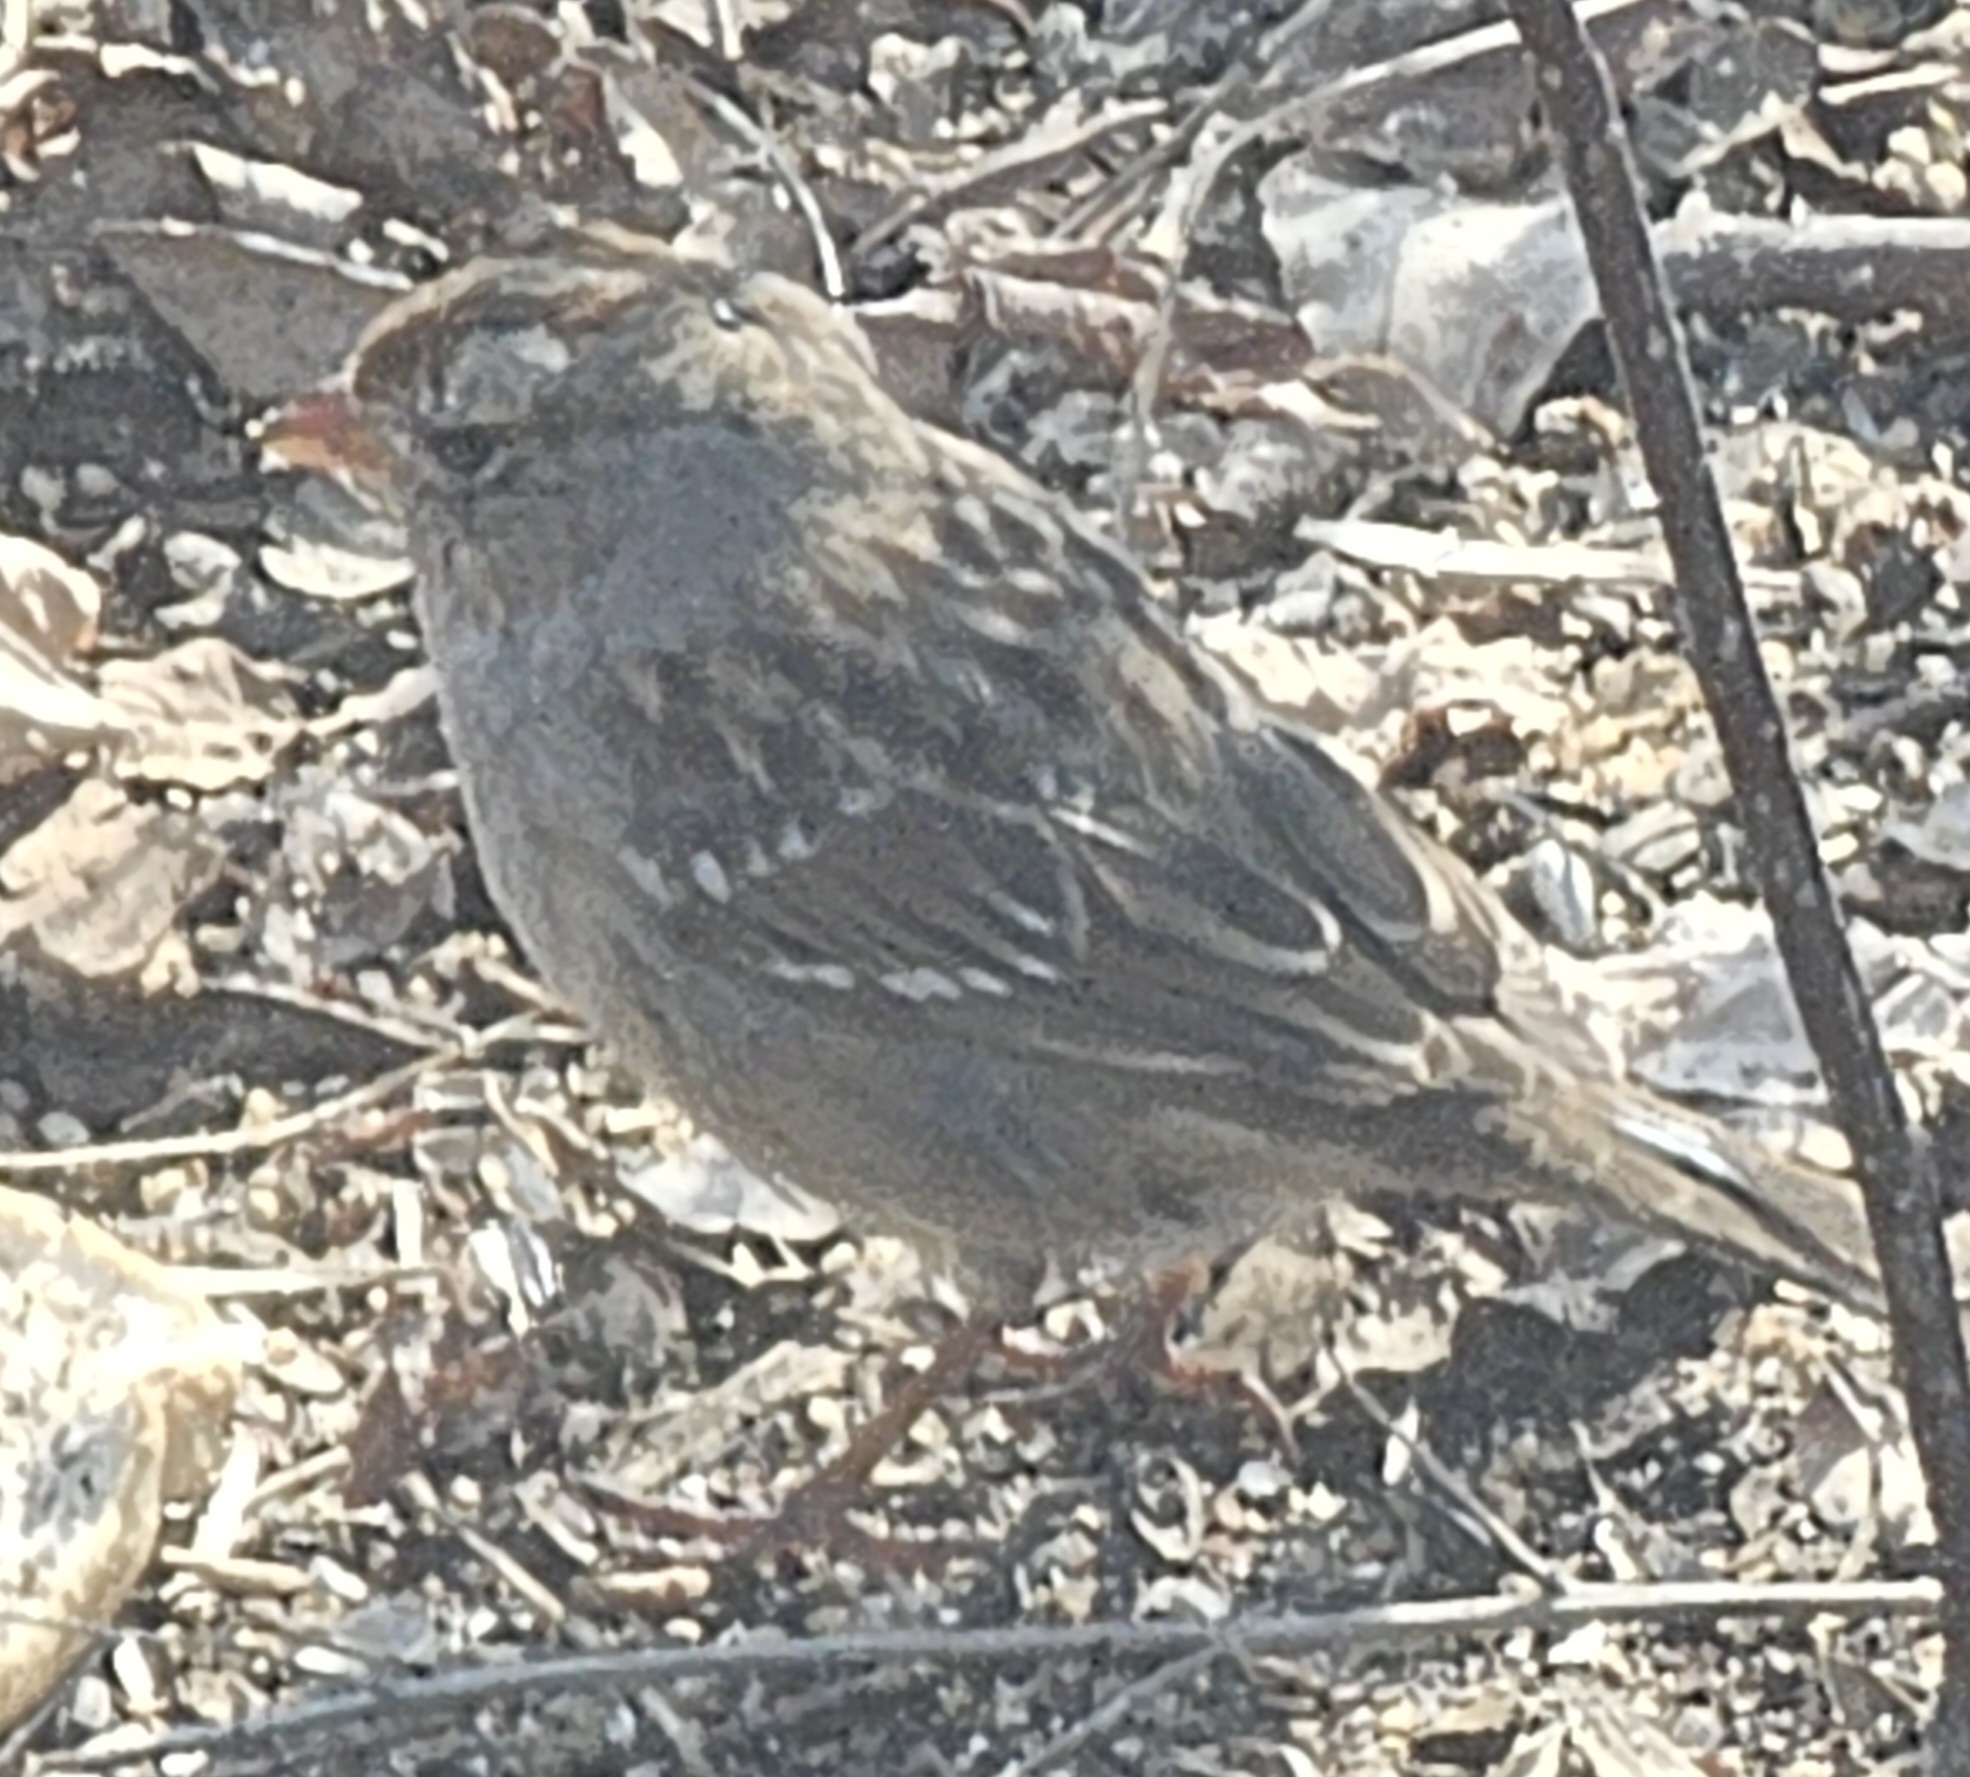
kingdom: Animalia
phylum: Chordata
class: Aves
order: Passeriformes
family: Passerellidae
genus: Zonotrichia
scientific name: Zonotrichia leucophrys
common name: White-crowned sparrow
